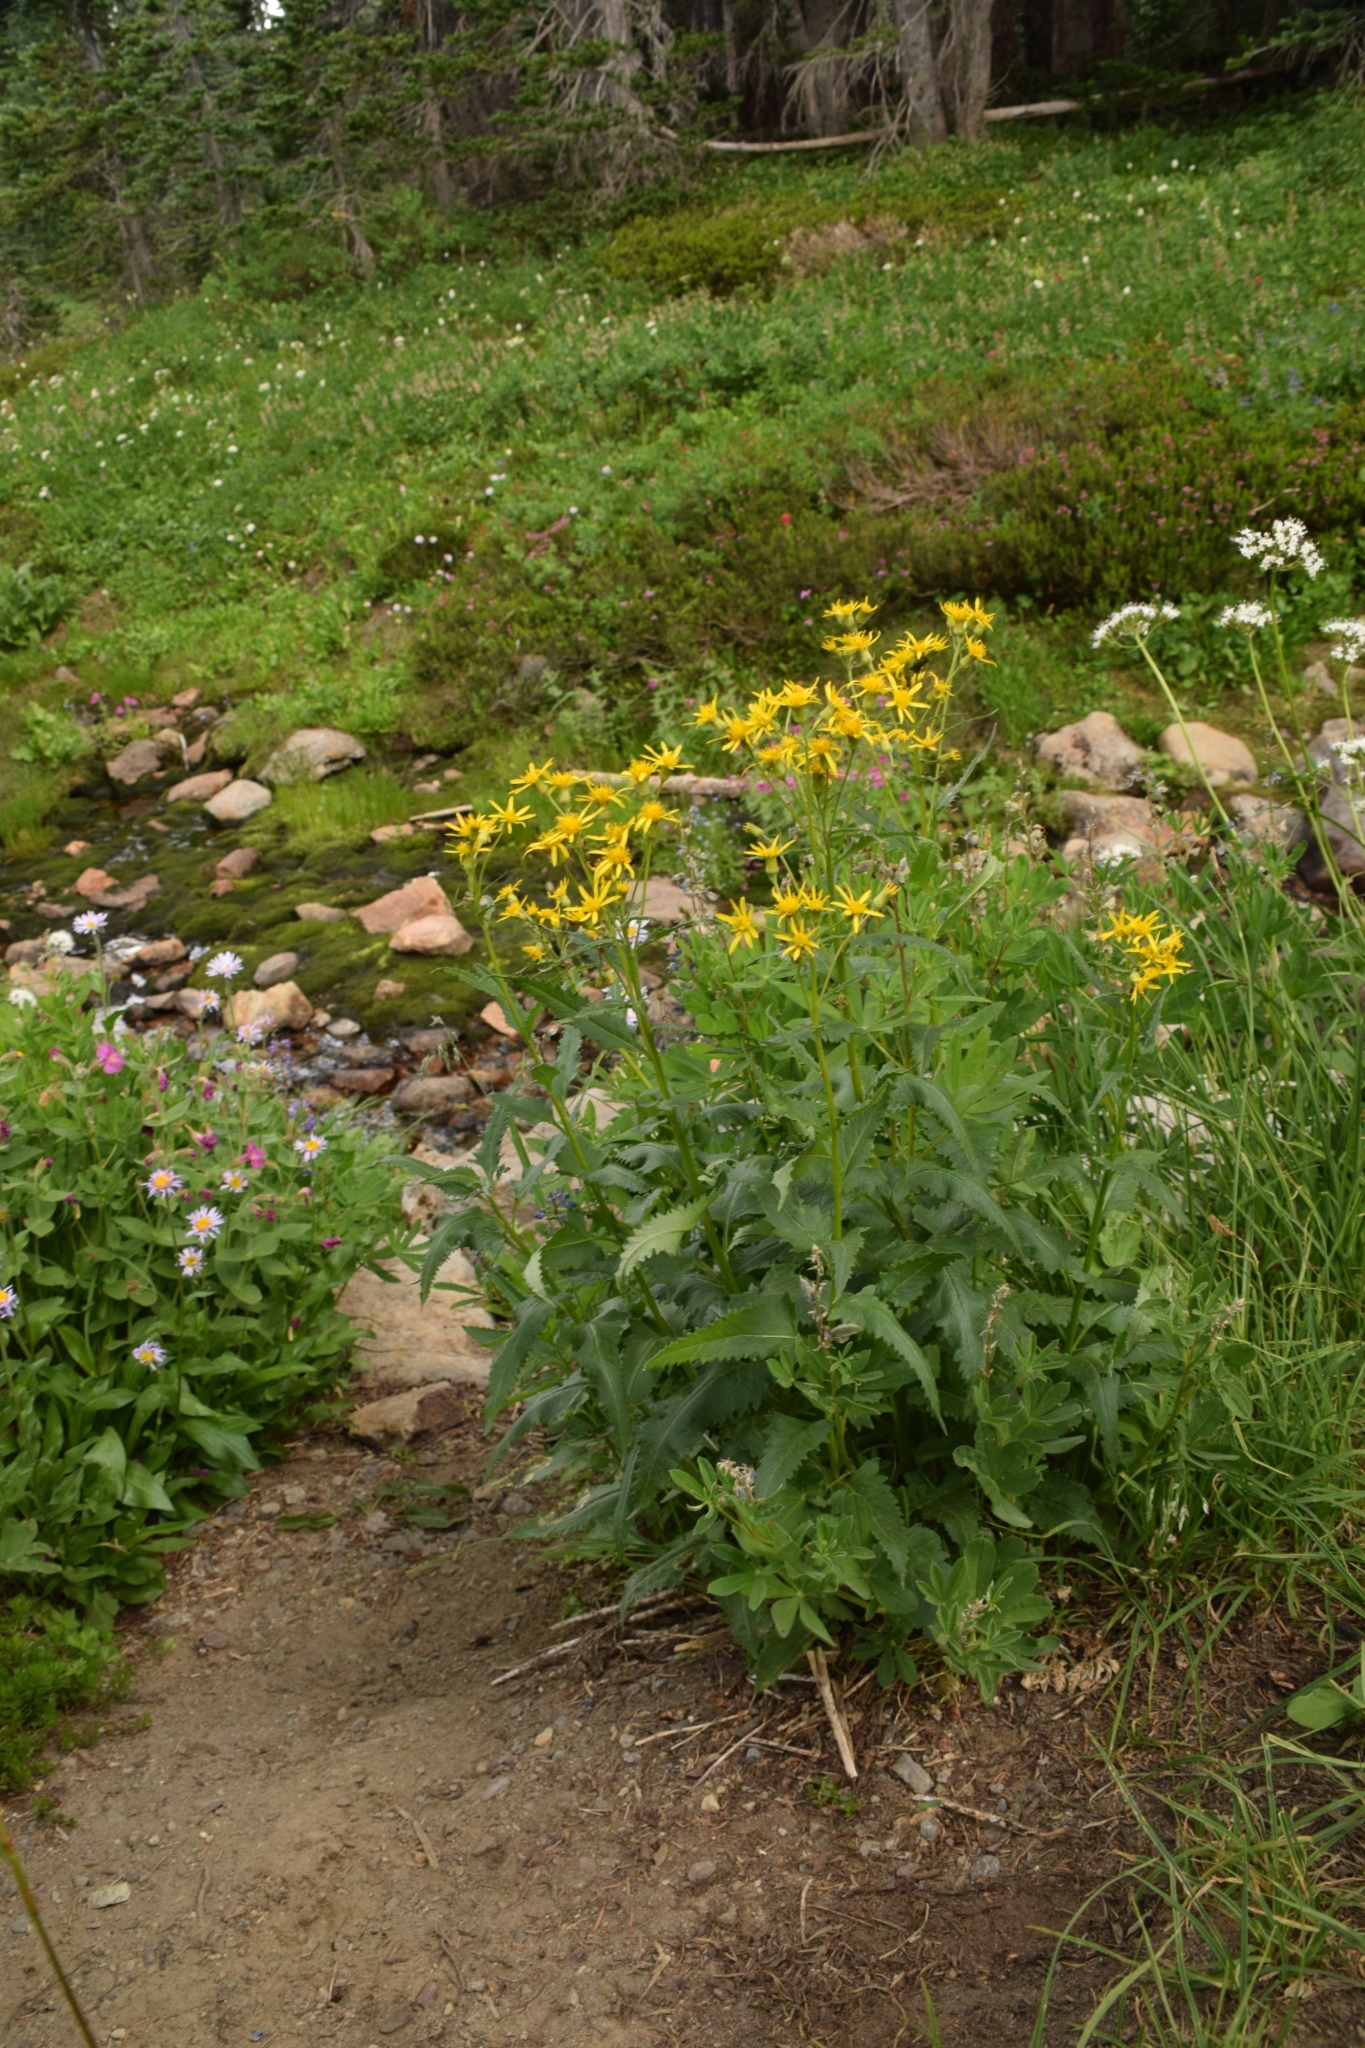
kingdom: Plantae
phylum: Tracheophyta
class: Magnoliopsida
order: Asterales
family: Asteraceae
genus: Senecio
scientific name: Senecio triangularis
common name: Arrowleaf butterweed
